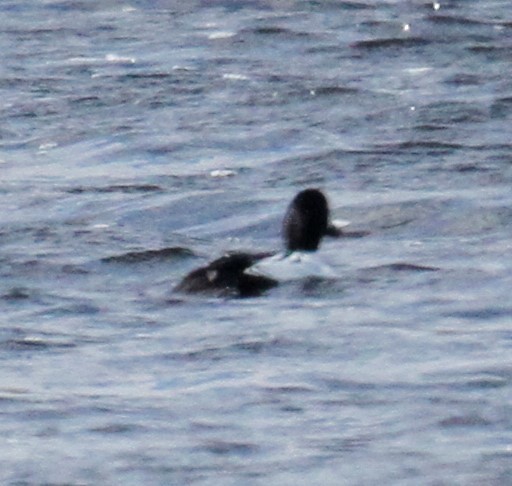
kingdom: Animalia
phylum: Chordata
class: Aves
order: Anseriformes
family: Anatidae
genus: Bucephala
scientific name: Bucephala clangula
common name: Common goldeneye
